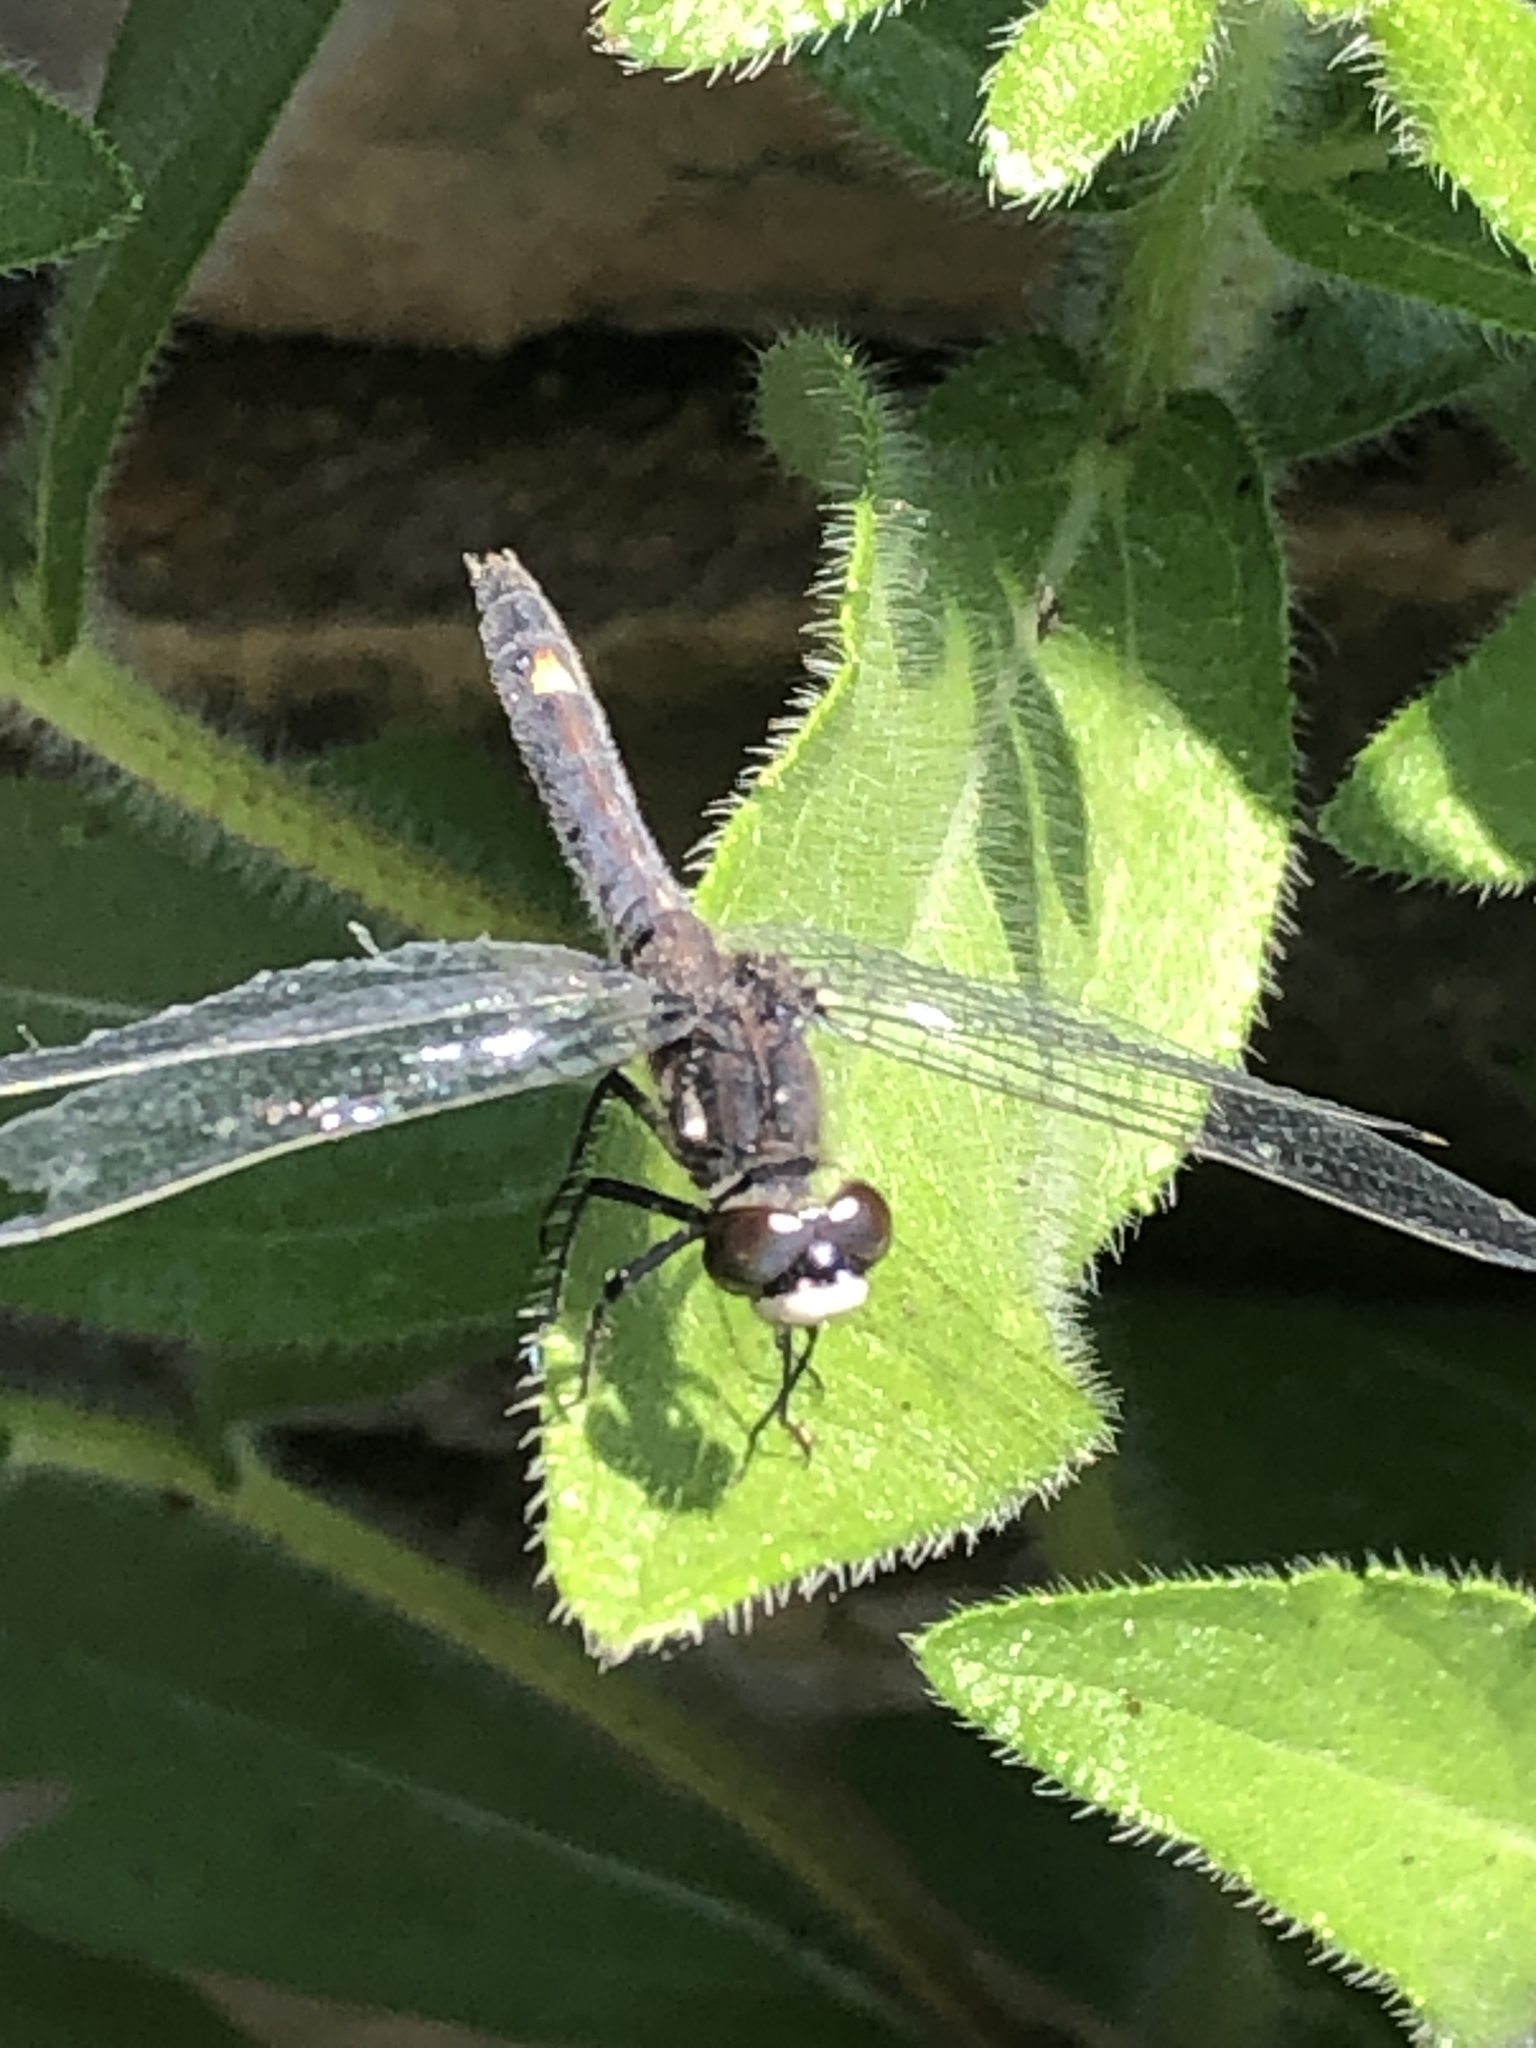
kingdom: Animalia
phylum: Arthropoda
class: Insecta
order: Odonata
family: Libellulidae
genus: Leucorrhinia
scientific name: Leucorrhinia intacta
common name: Dot-tailed whiteface
